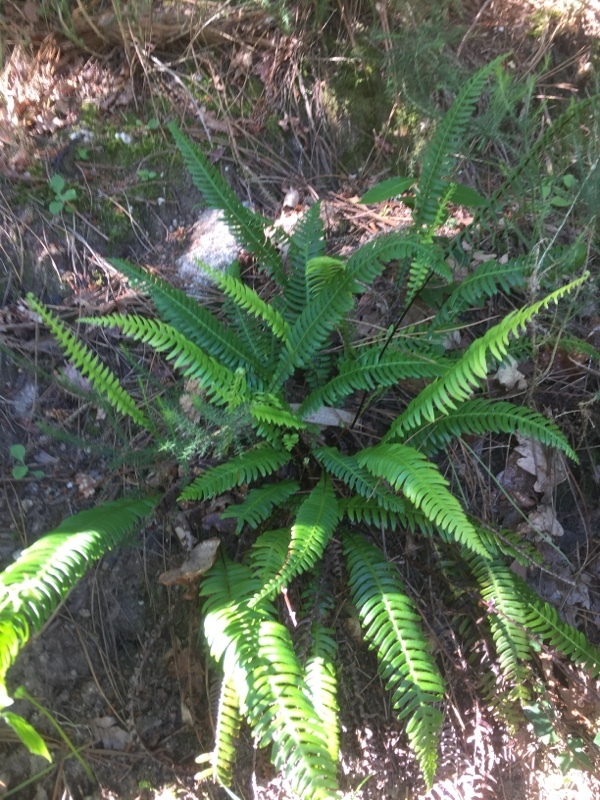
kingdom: Plantae
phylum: Tracheophyta
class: Polypodiopsida
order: Polypodiales
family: Blechnaceae
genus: Struthiopteris
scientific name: Struthiopteris spicant
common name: Deer fern
